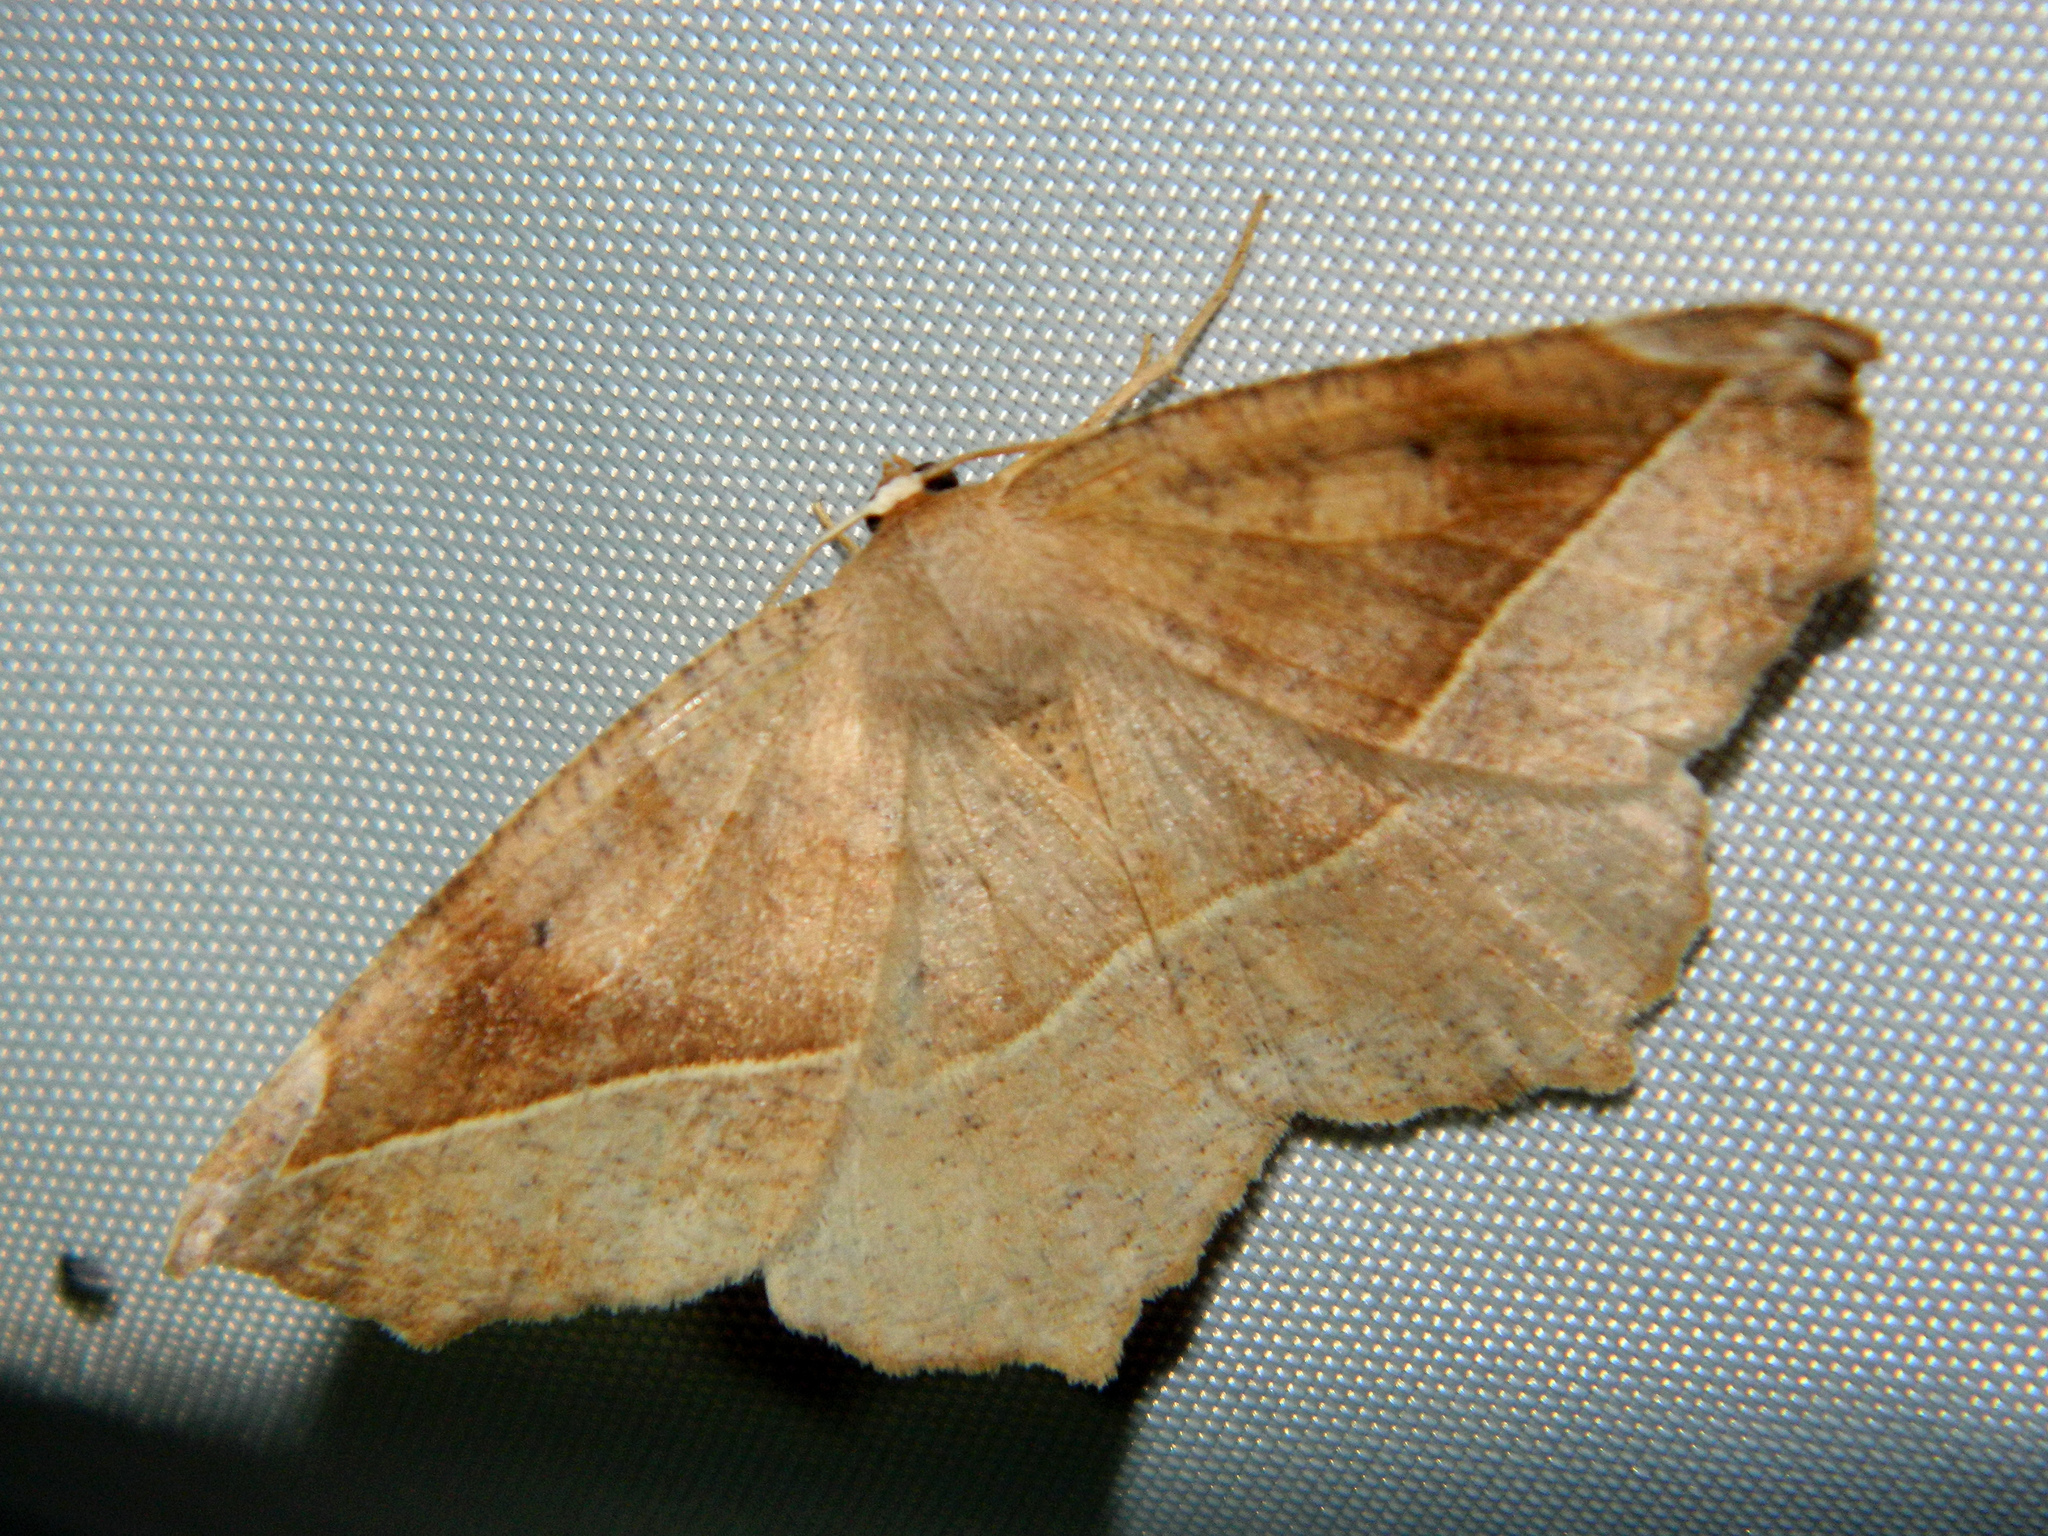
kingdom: Animalia
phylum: Arthropoda
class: Insecta
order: Lepidoptera
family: Geometridae
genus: Eutrapela
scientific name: Eutrapela clemataria
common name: Curved-toothed geometer
